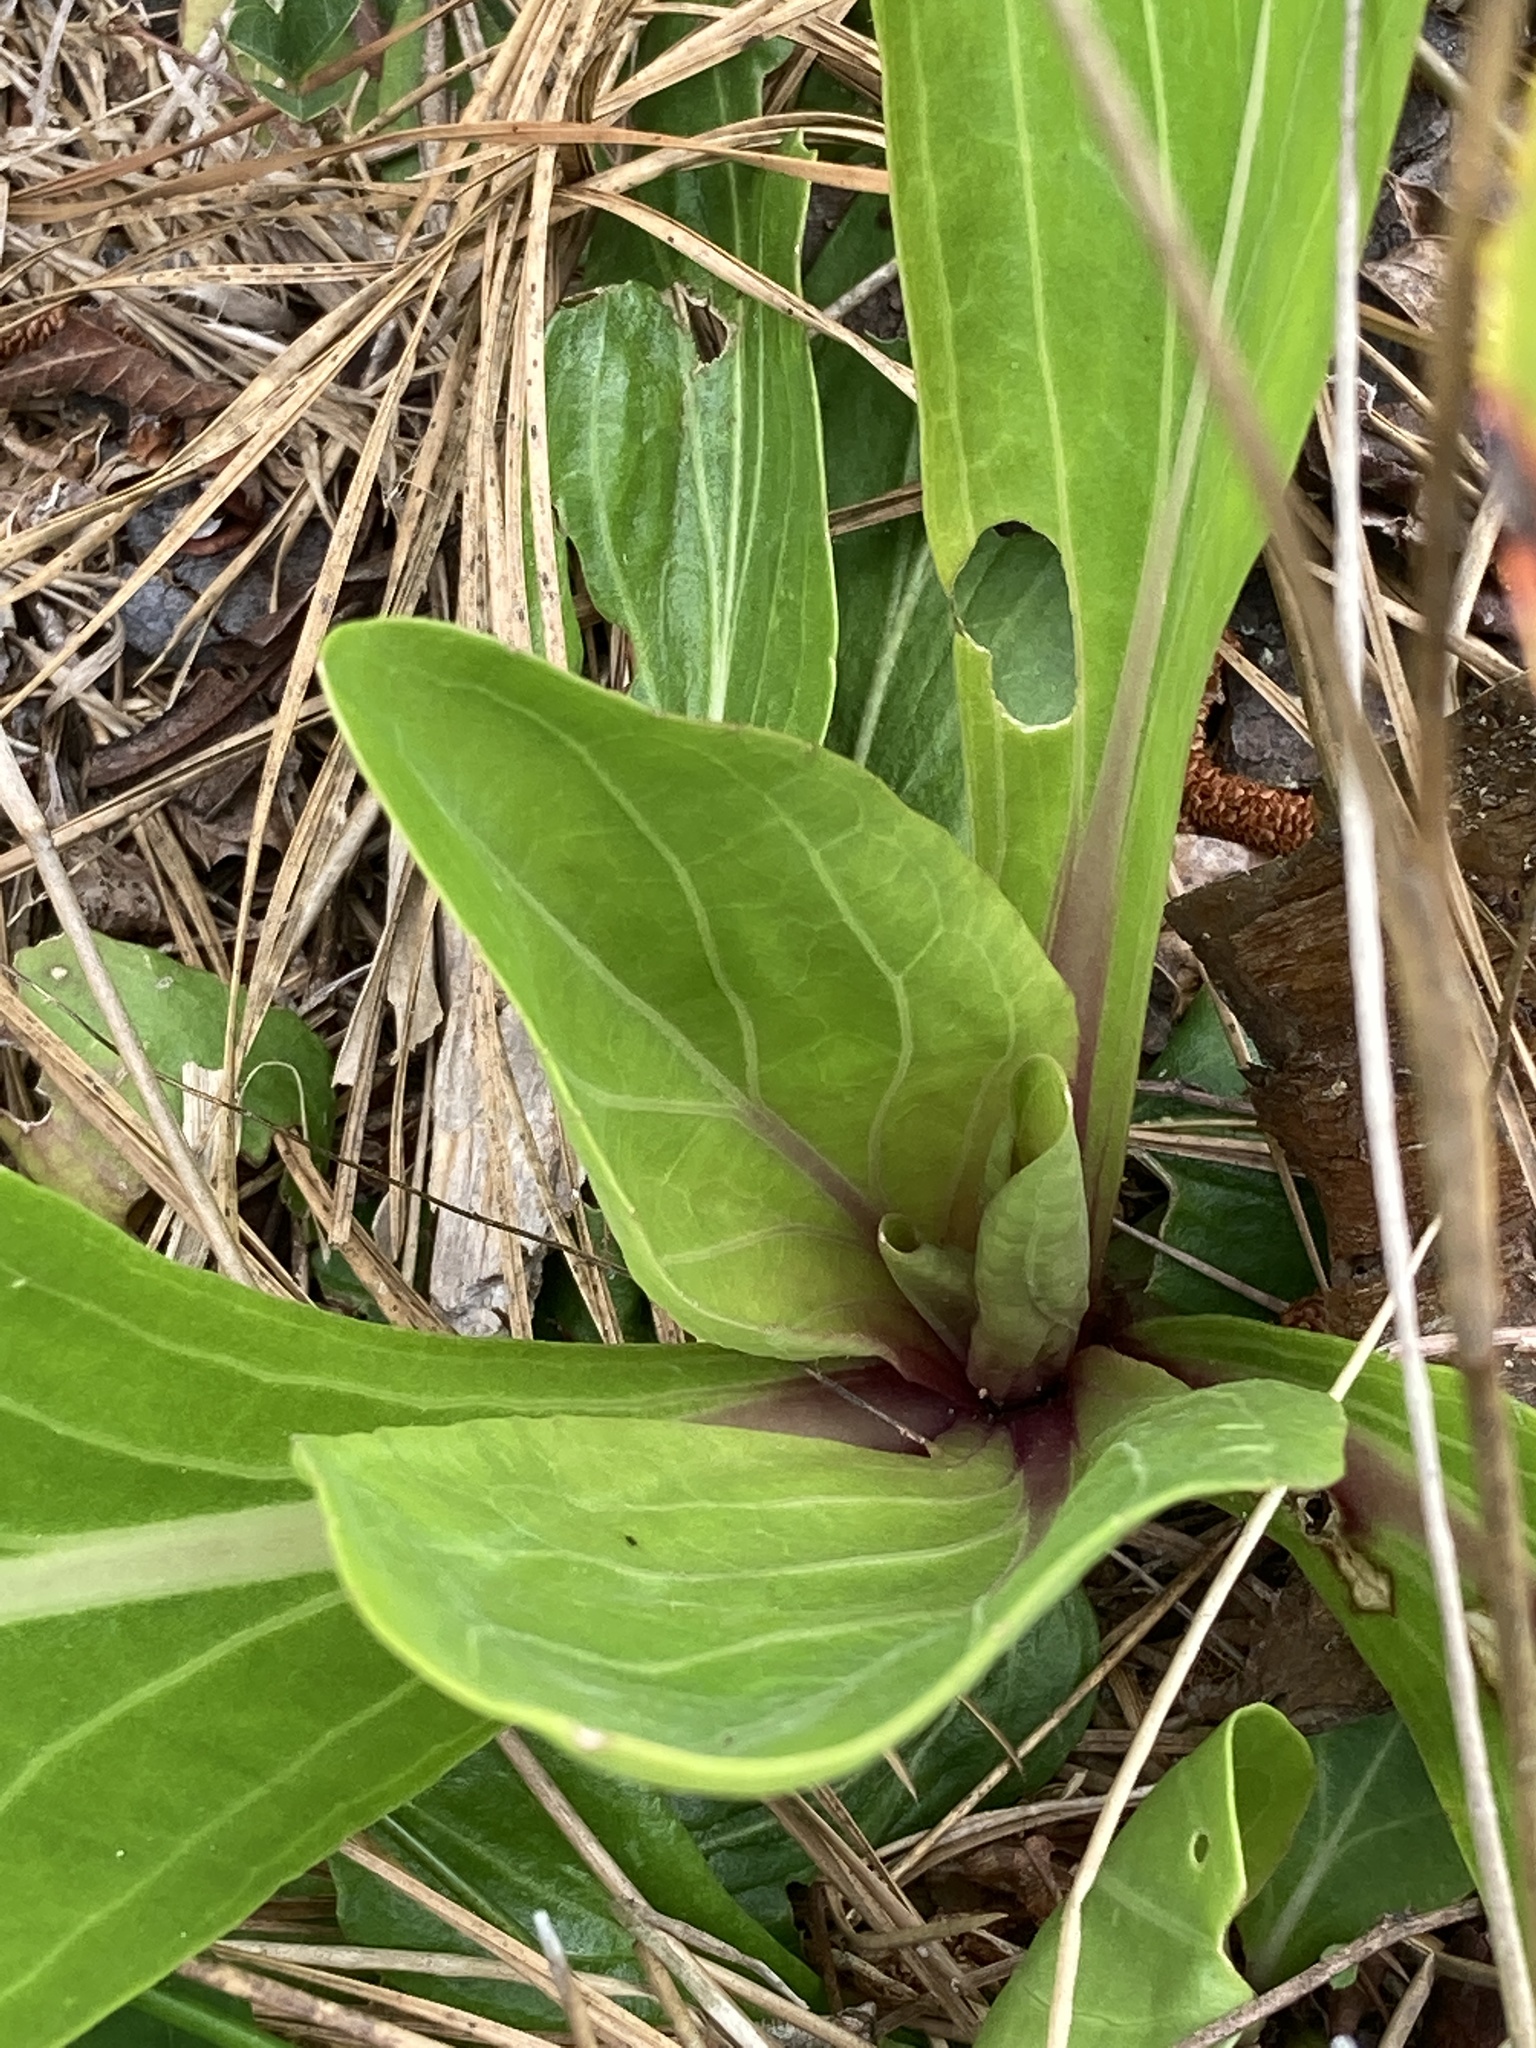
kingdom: Plantae
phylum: Tracheophyta
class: Magnoliopsida
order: Asterales
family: Asteraceae
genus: Carphephorus
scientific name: Carphephorus odoratissimus
